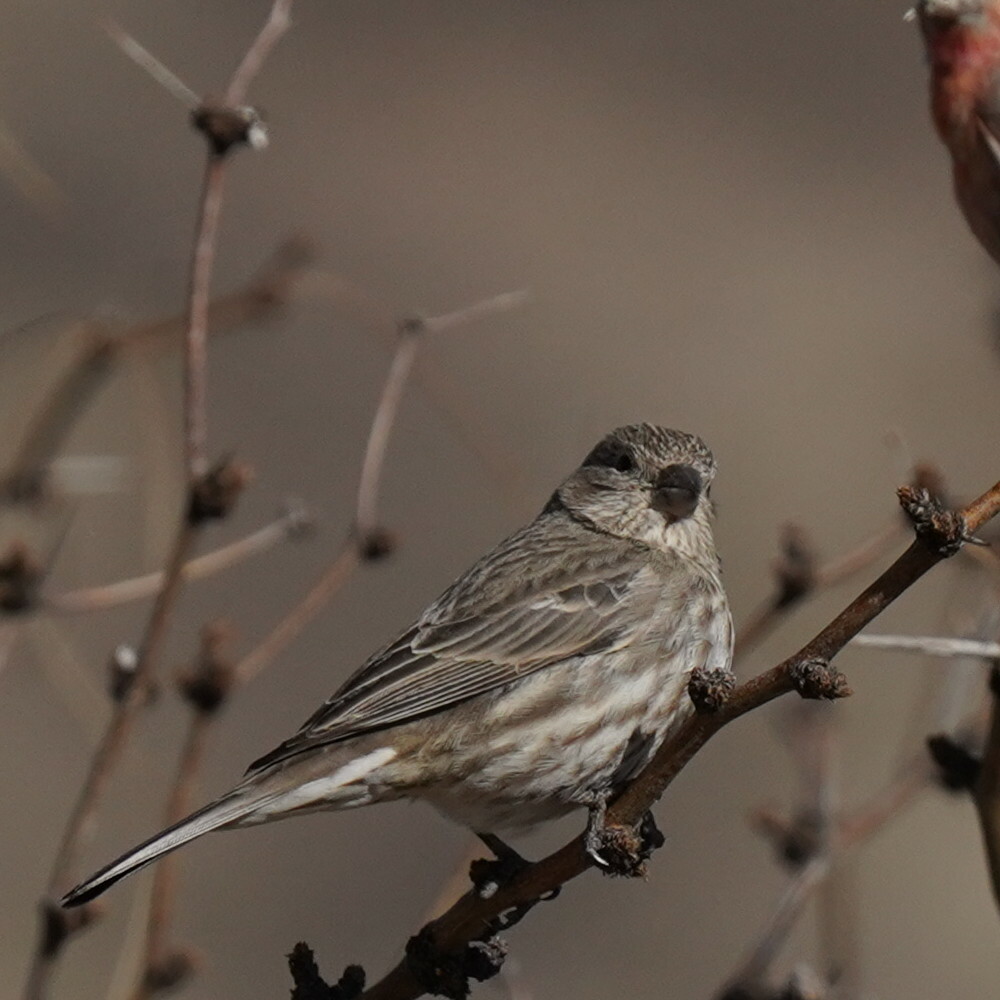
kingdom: Animalia
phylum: Chordata
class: Aves
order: Passeriformes
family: Fringillidae
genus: Haemorhous
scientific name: Haemorhous mexicanus
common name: House finch
